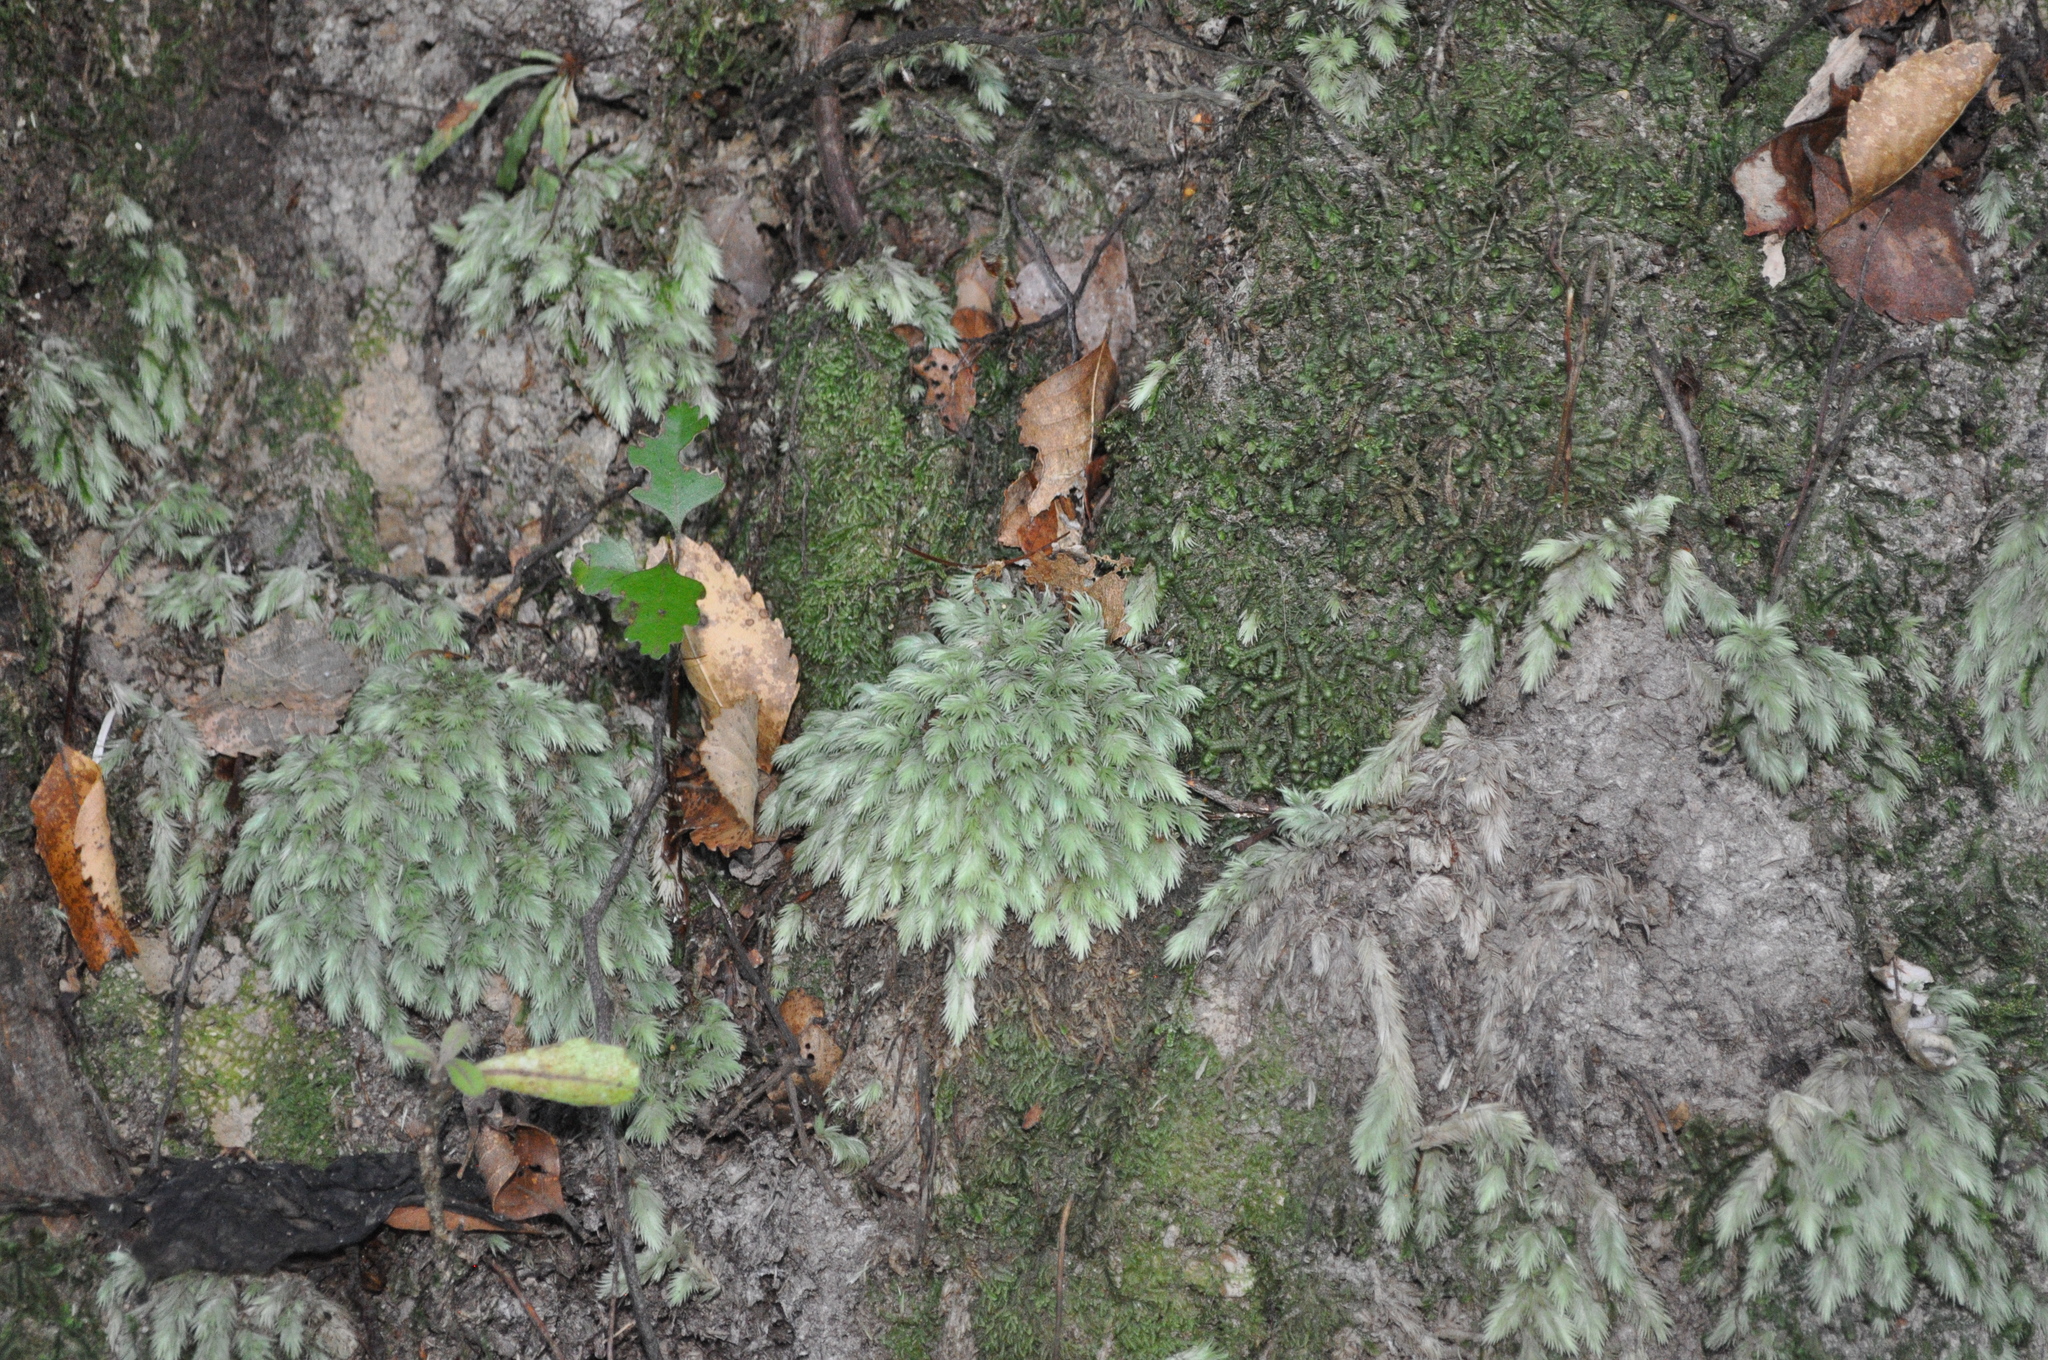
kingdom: Plantae
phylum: Bryophyta
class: Bryopsida
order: Dicranales
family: Leucobryaceae
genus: Leucobryum
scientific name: Leucobryum javense
